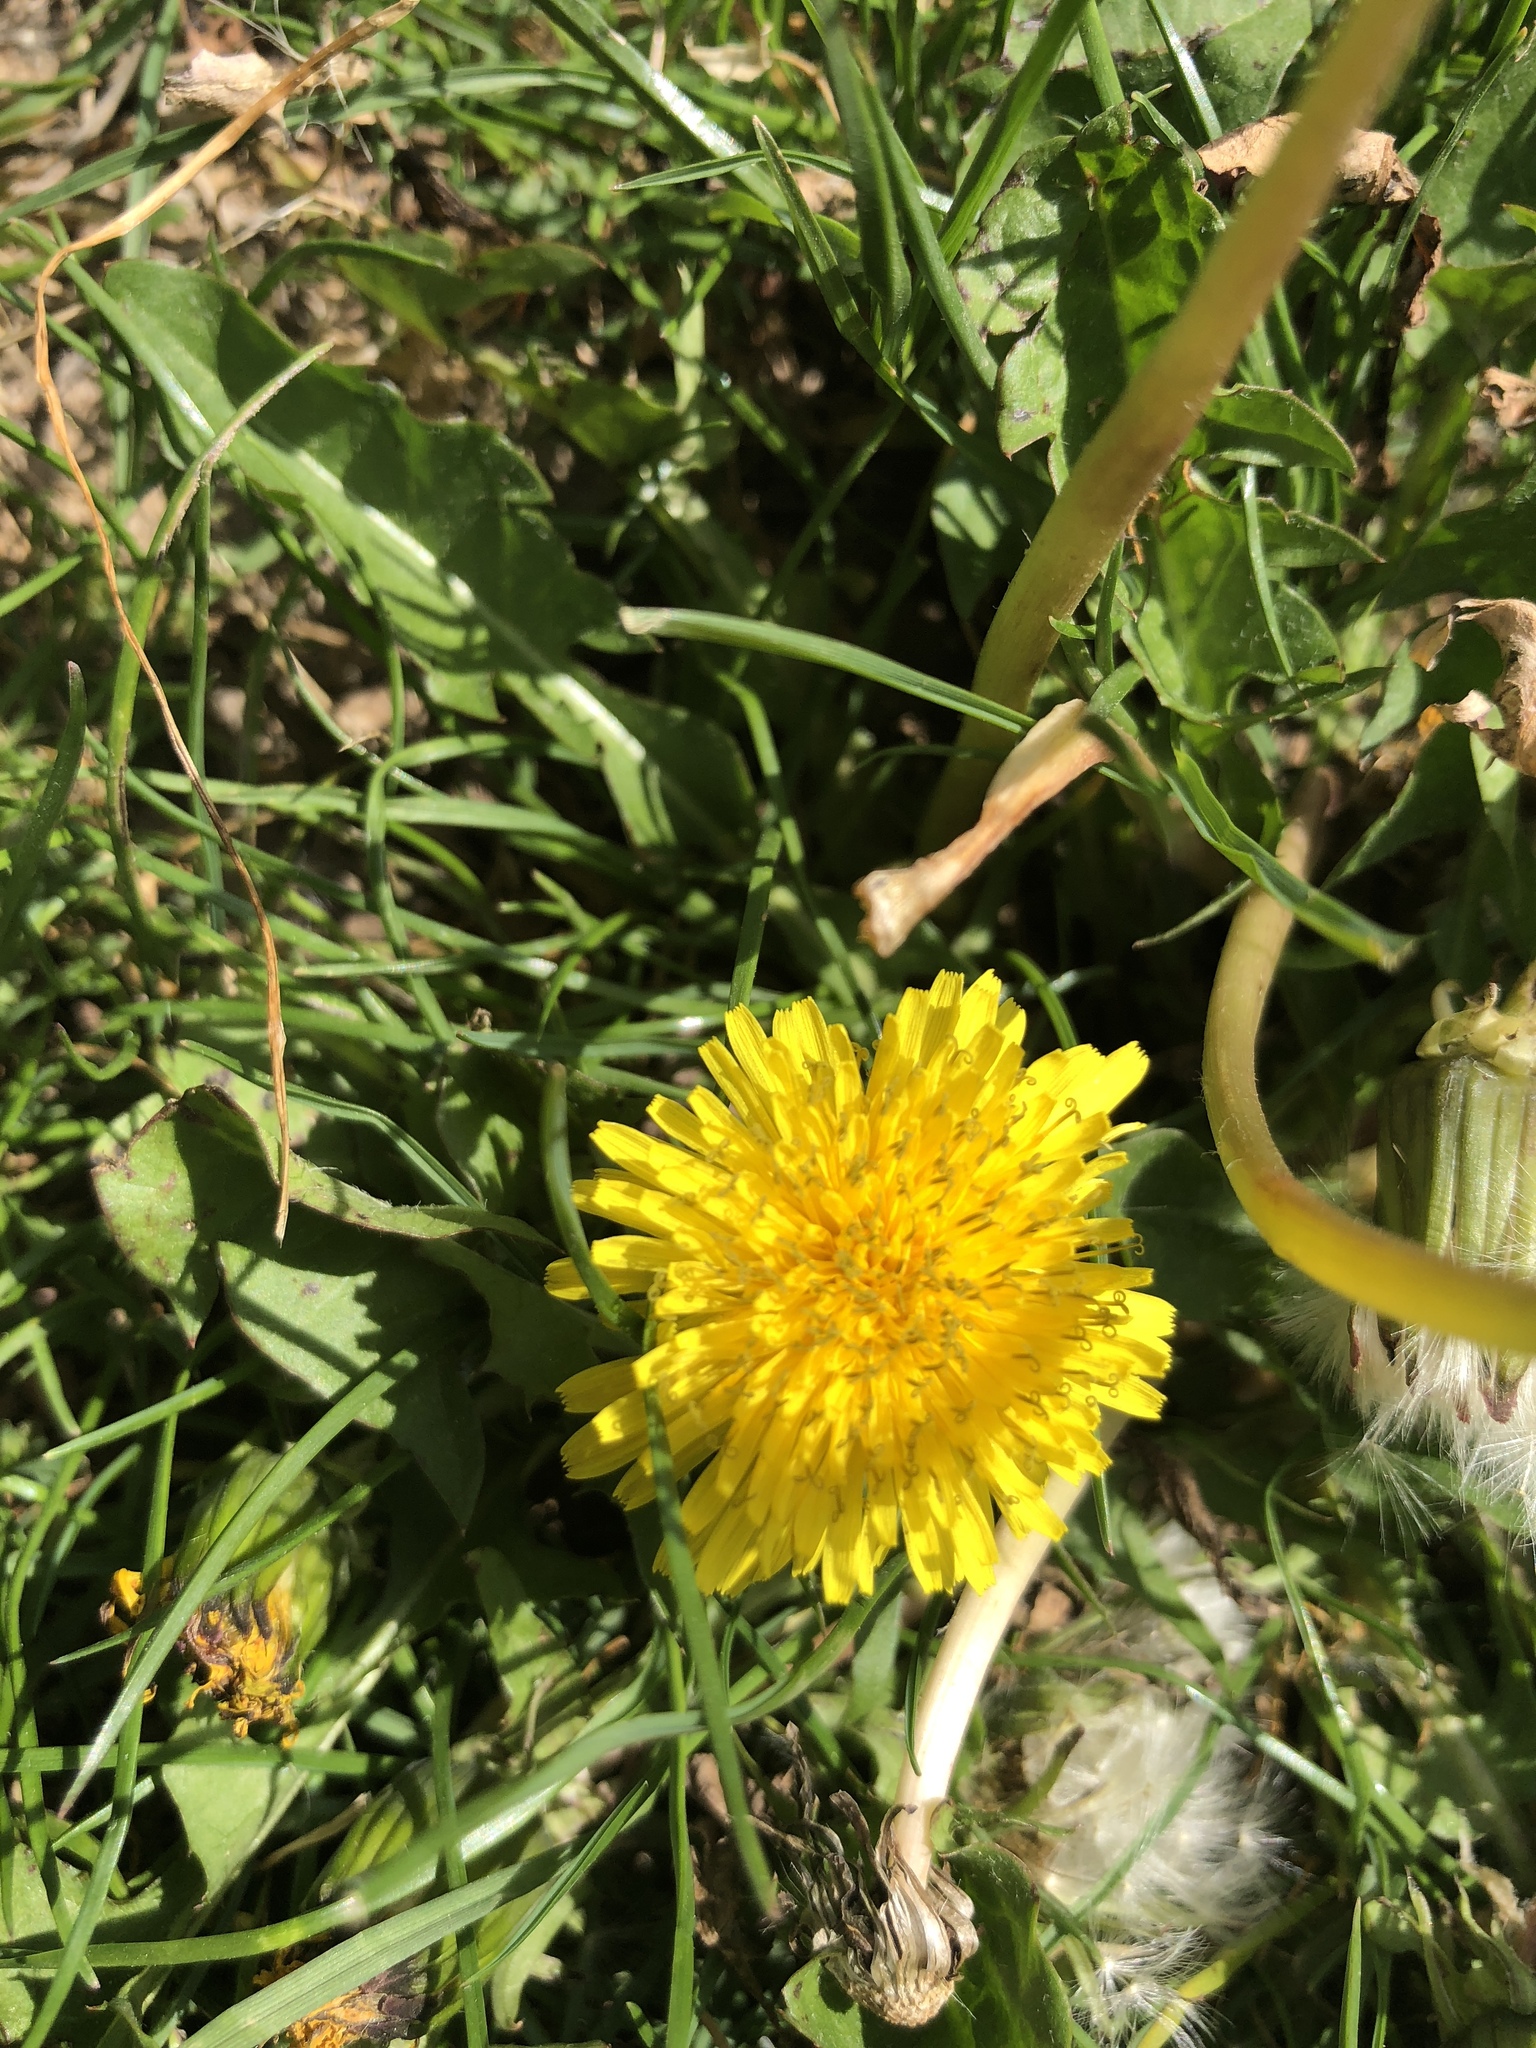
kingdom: Plantae
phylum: Tracheophyta
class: Magnoliopsida
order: Asterales
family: Asteraceae
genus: Taraxacum
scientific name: Taraxacum officinale
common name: Common dandelion
